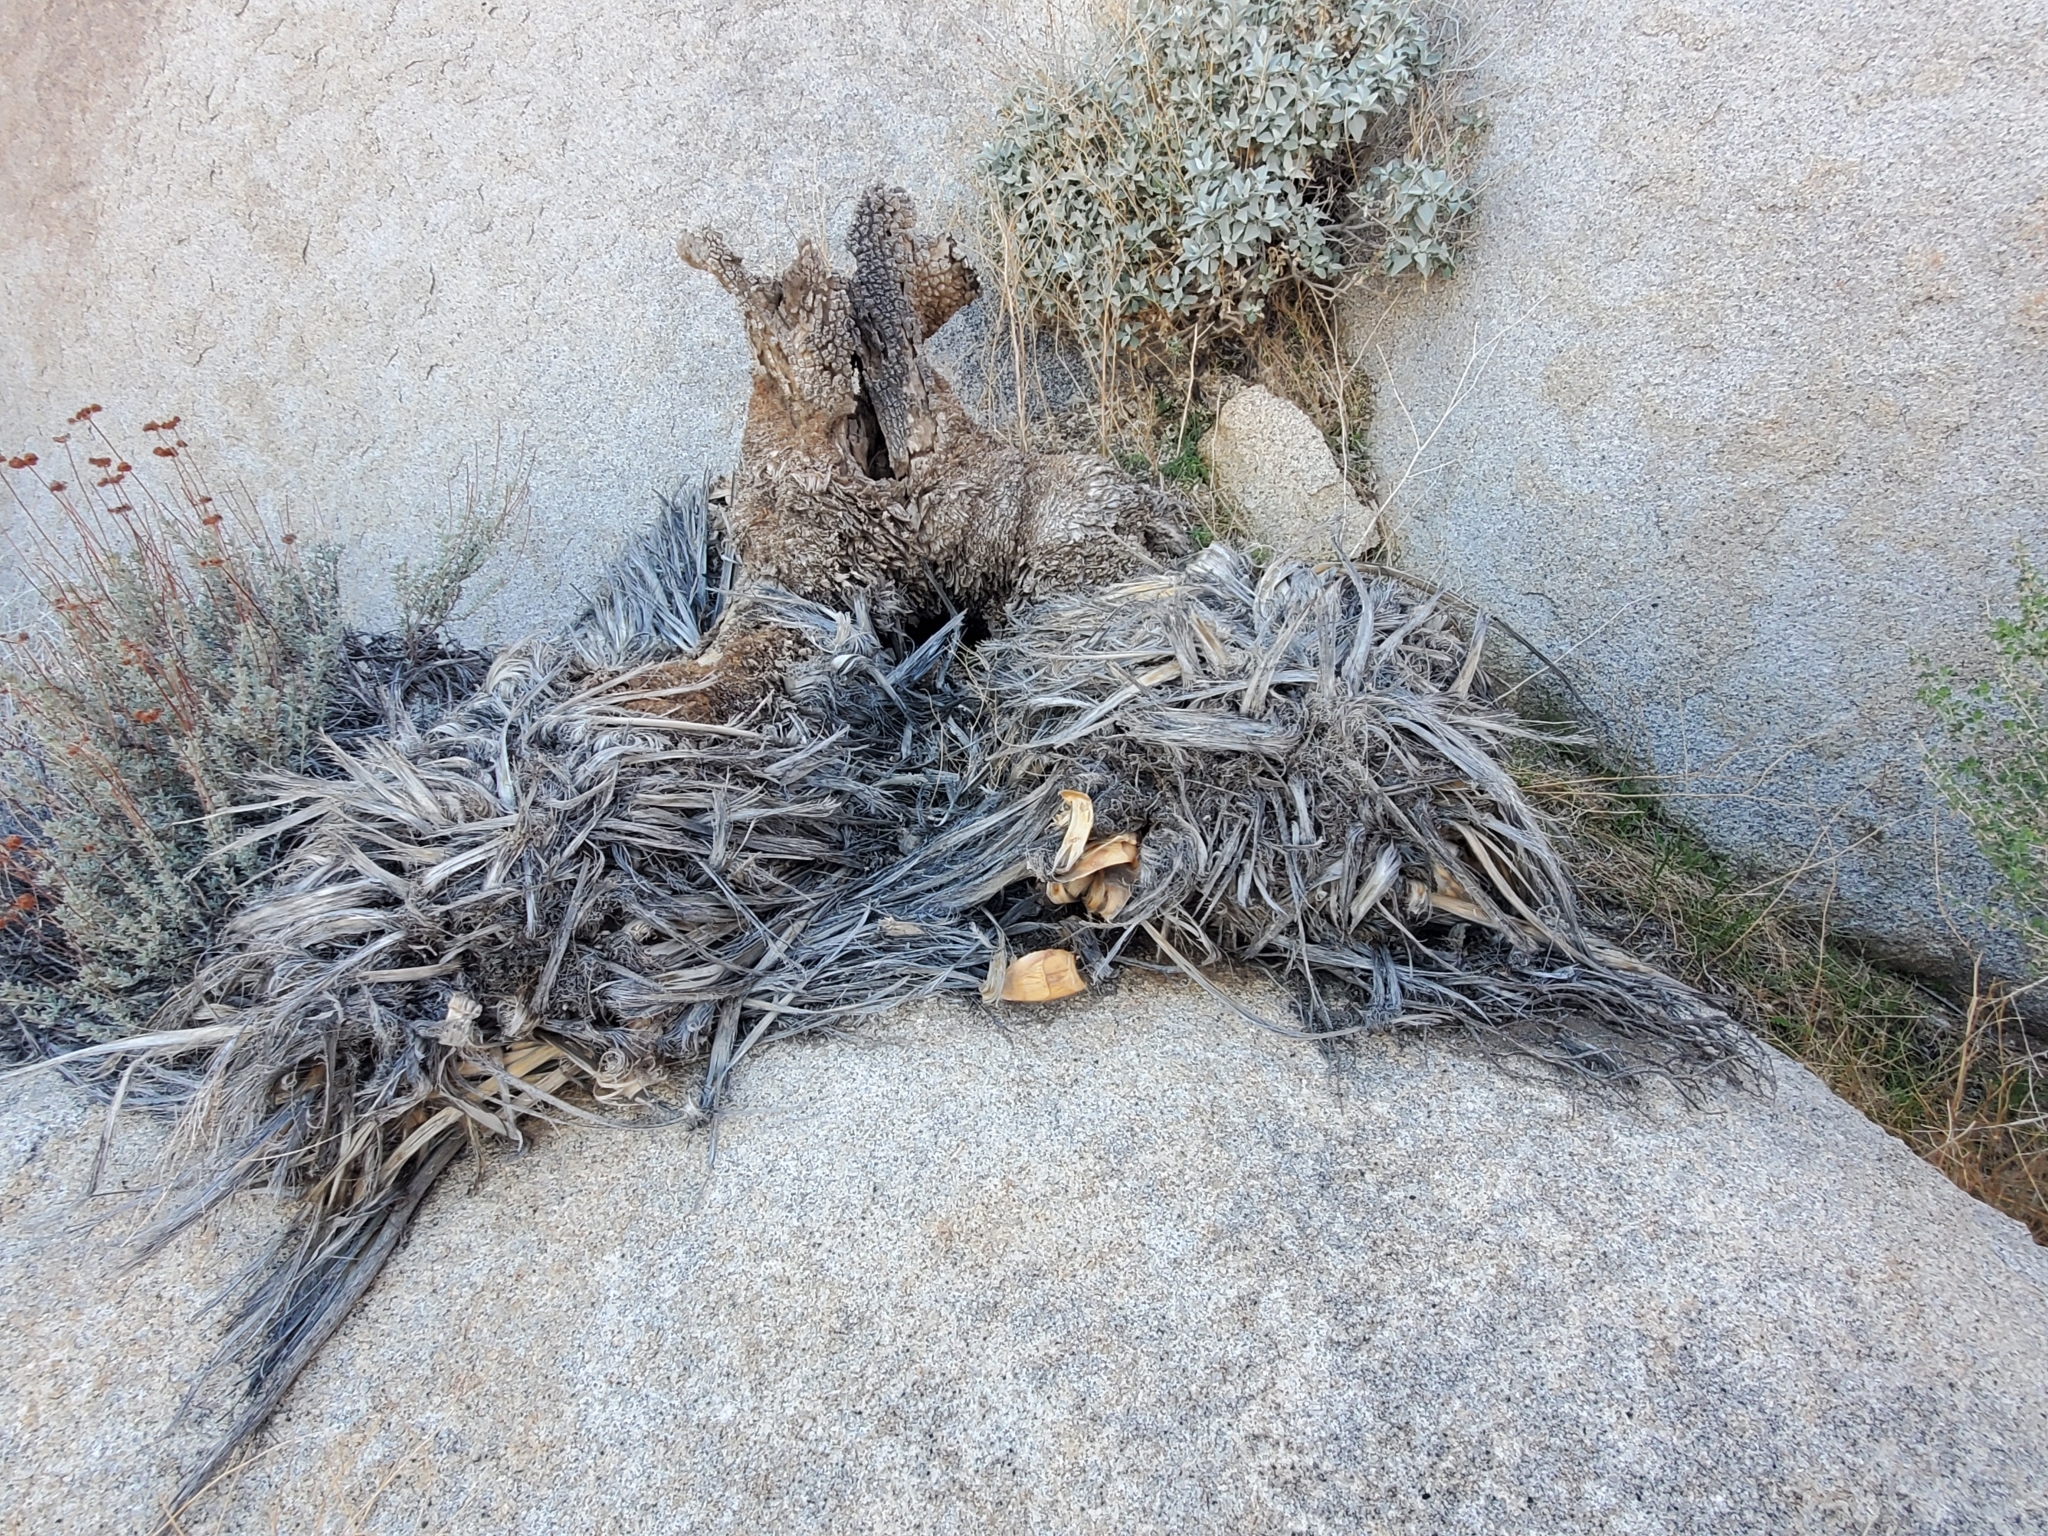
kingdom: Plantae
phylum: Tracheophyta
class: Liliopsida
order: Asparagales
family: Asparagaceae
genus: Nolina
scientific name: Nolina bigelovii
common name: Bigelow bear-grass
